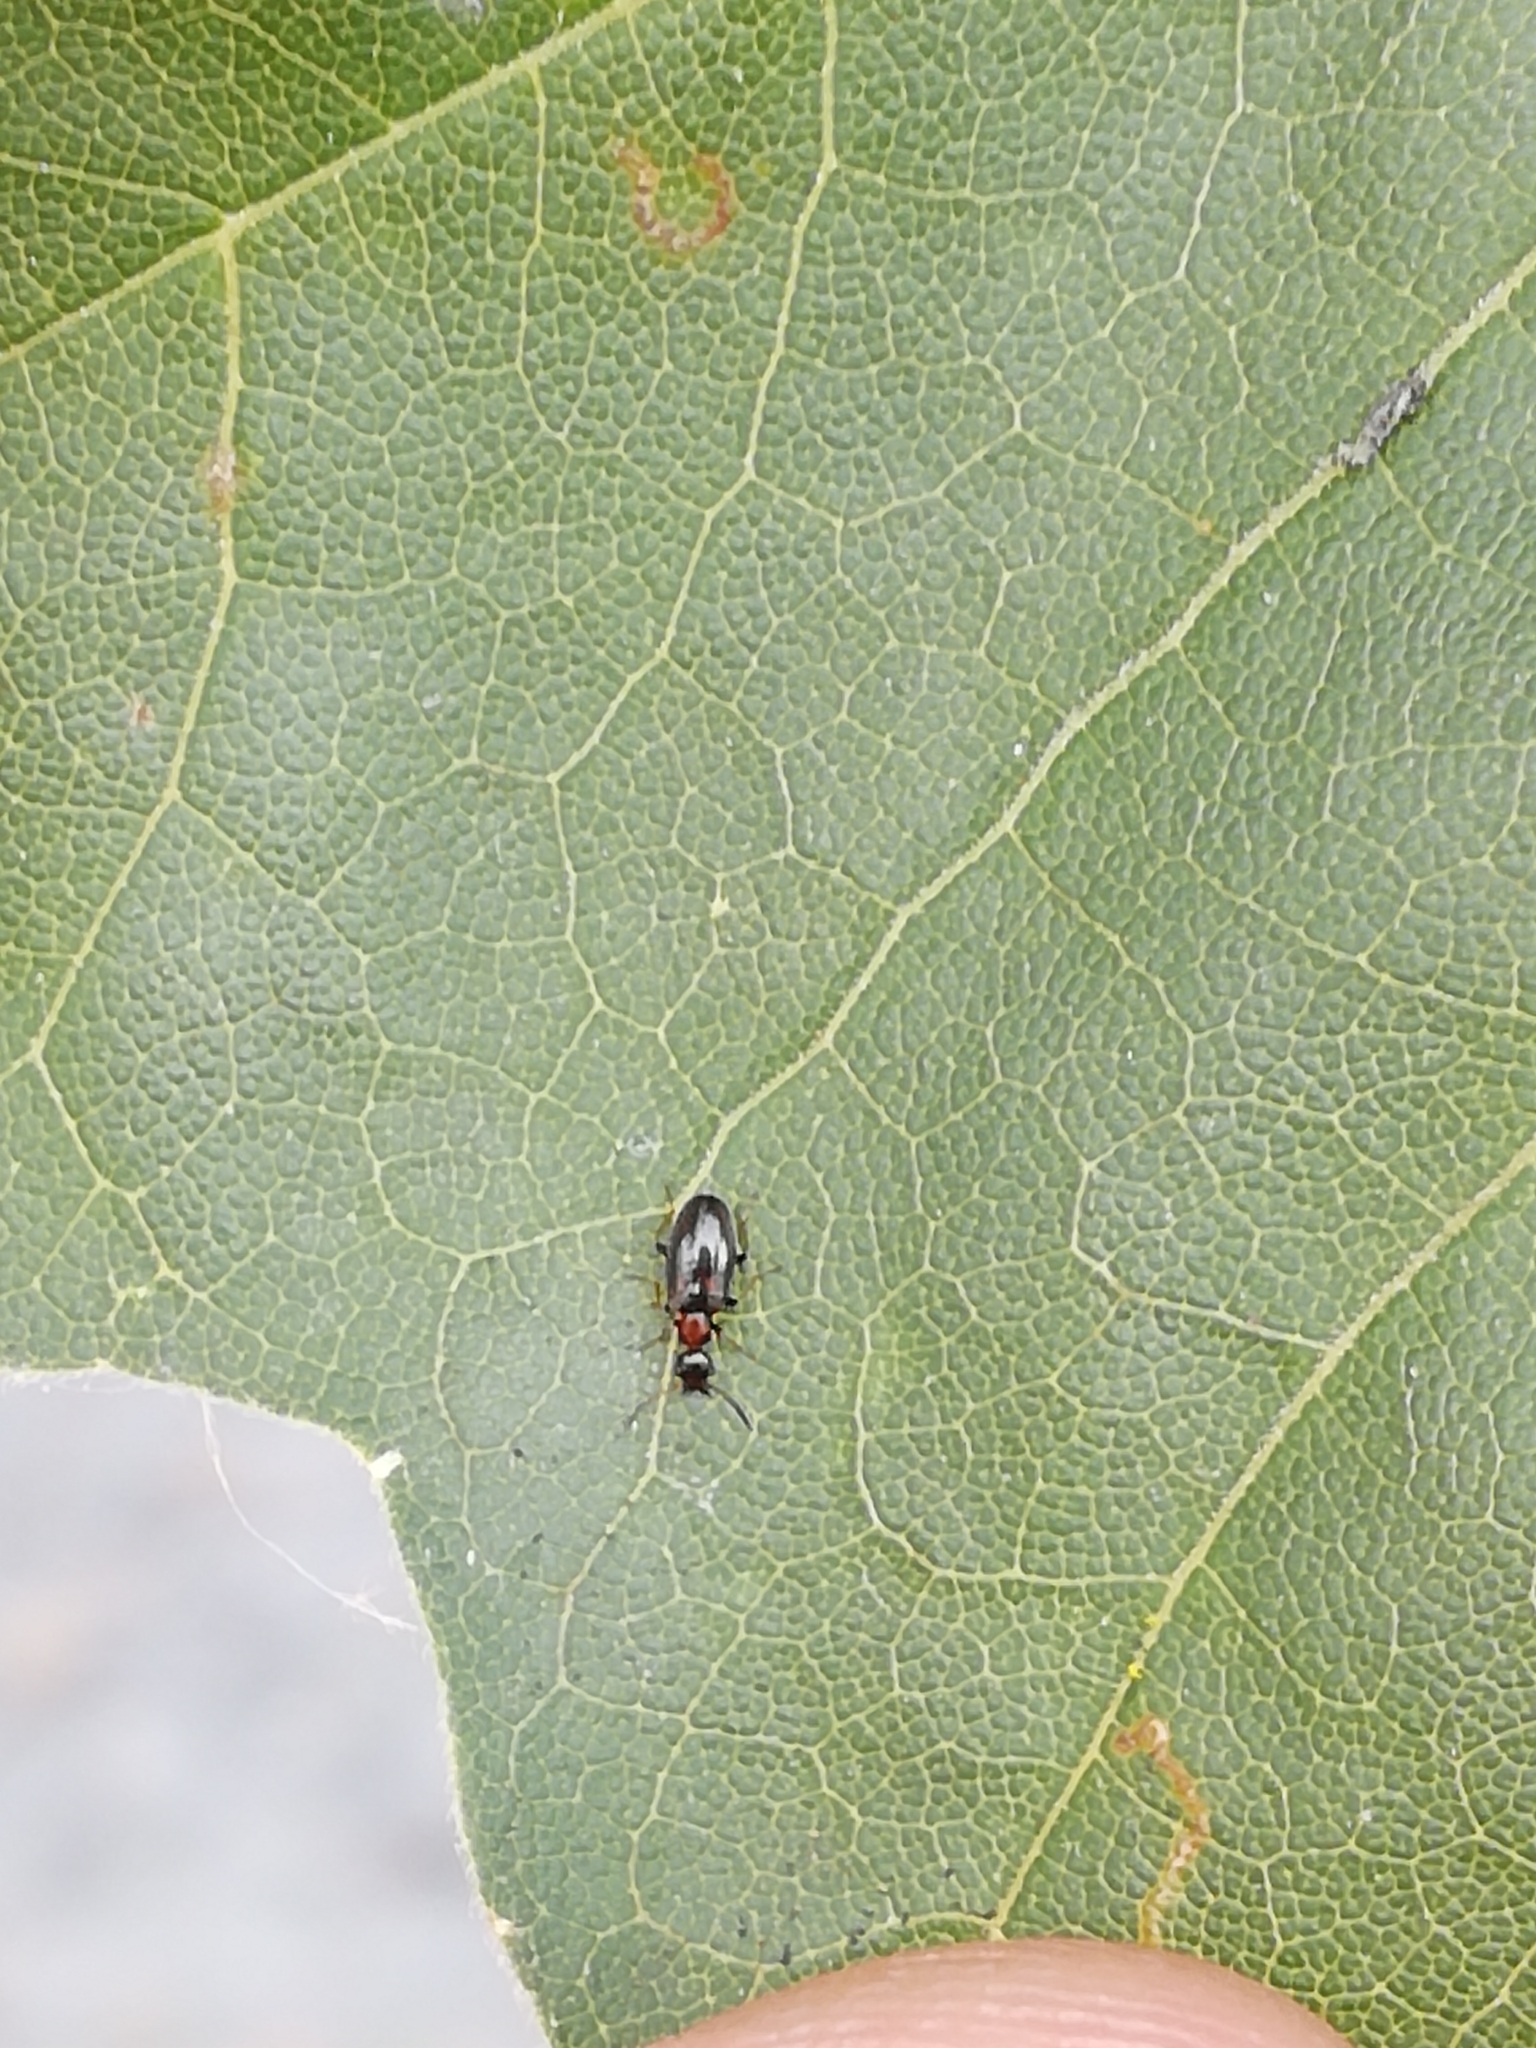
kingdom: Animalia
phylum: Arthropoda
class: Insecta
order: Coleoptera
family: Anthicidae
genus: Microhoria
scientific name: Microhoria terminata
